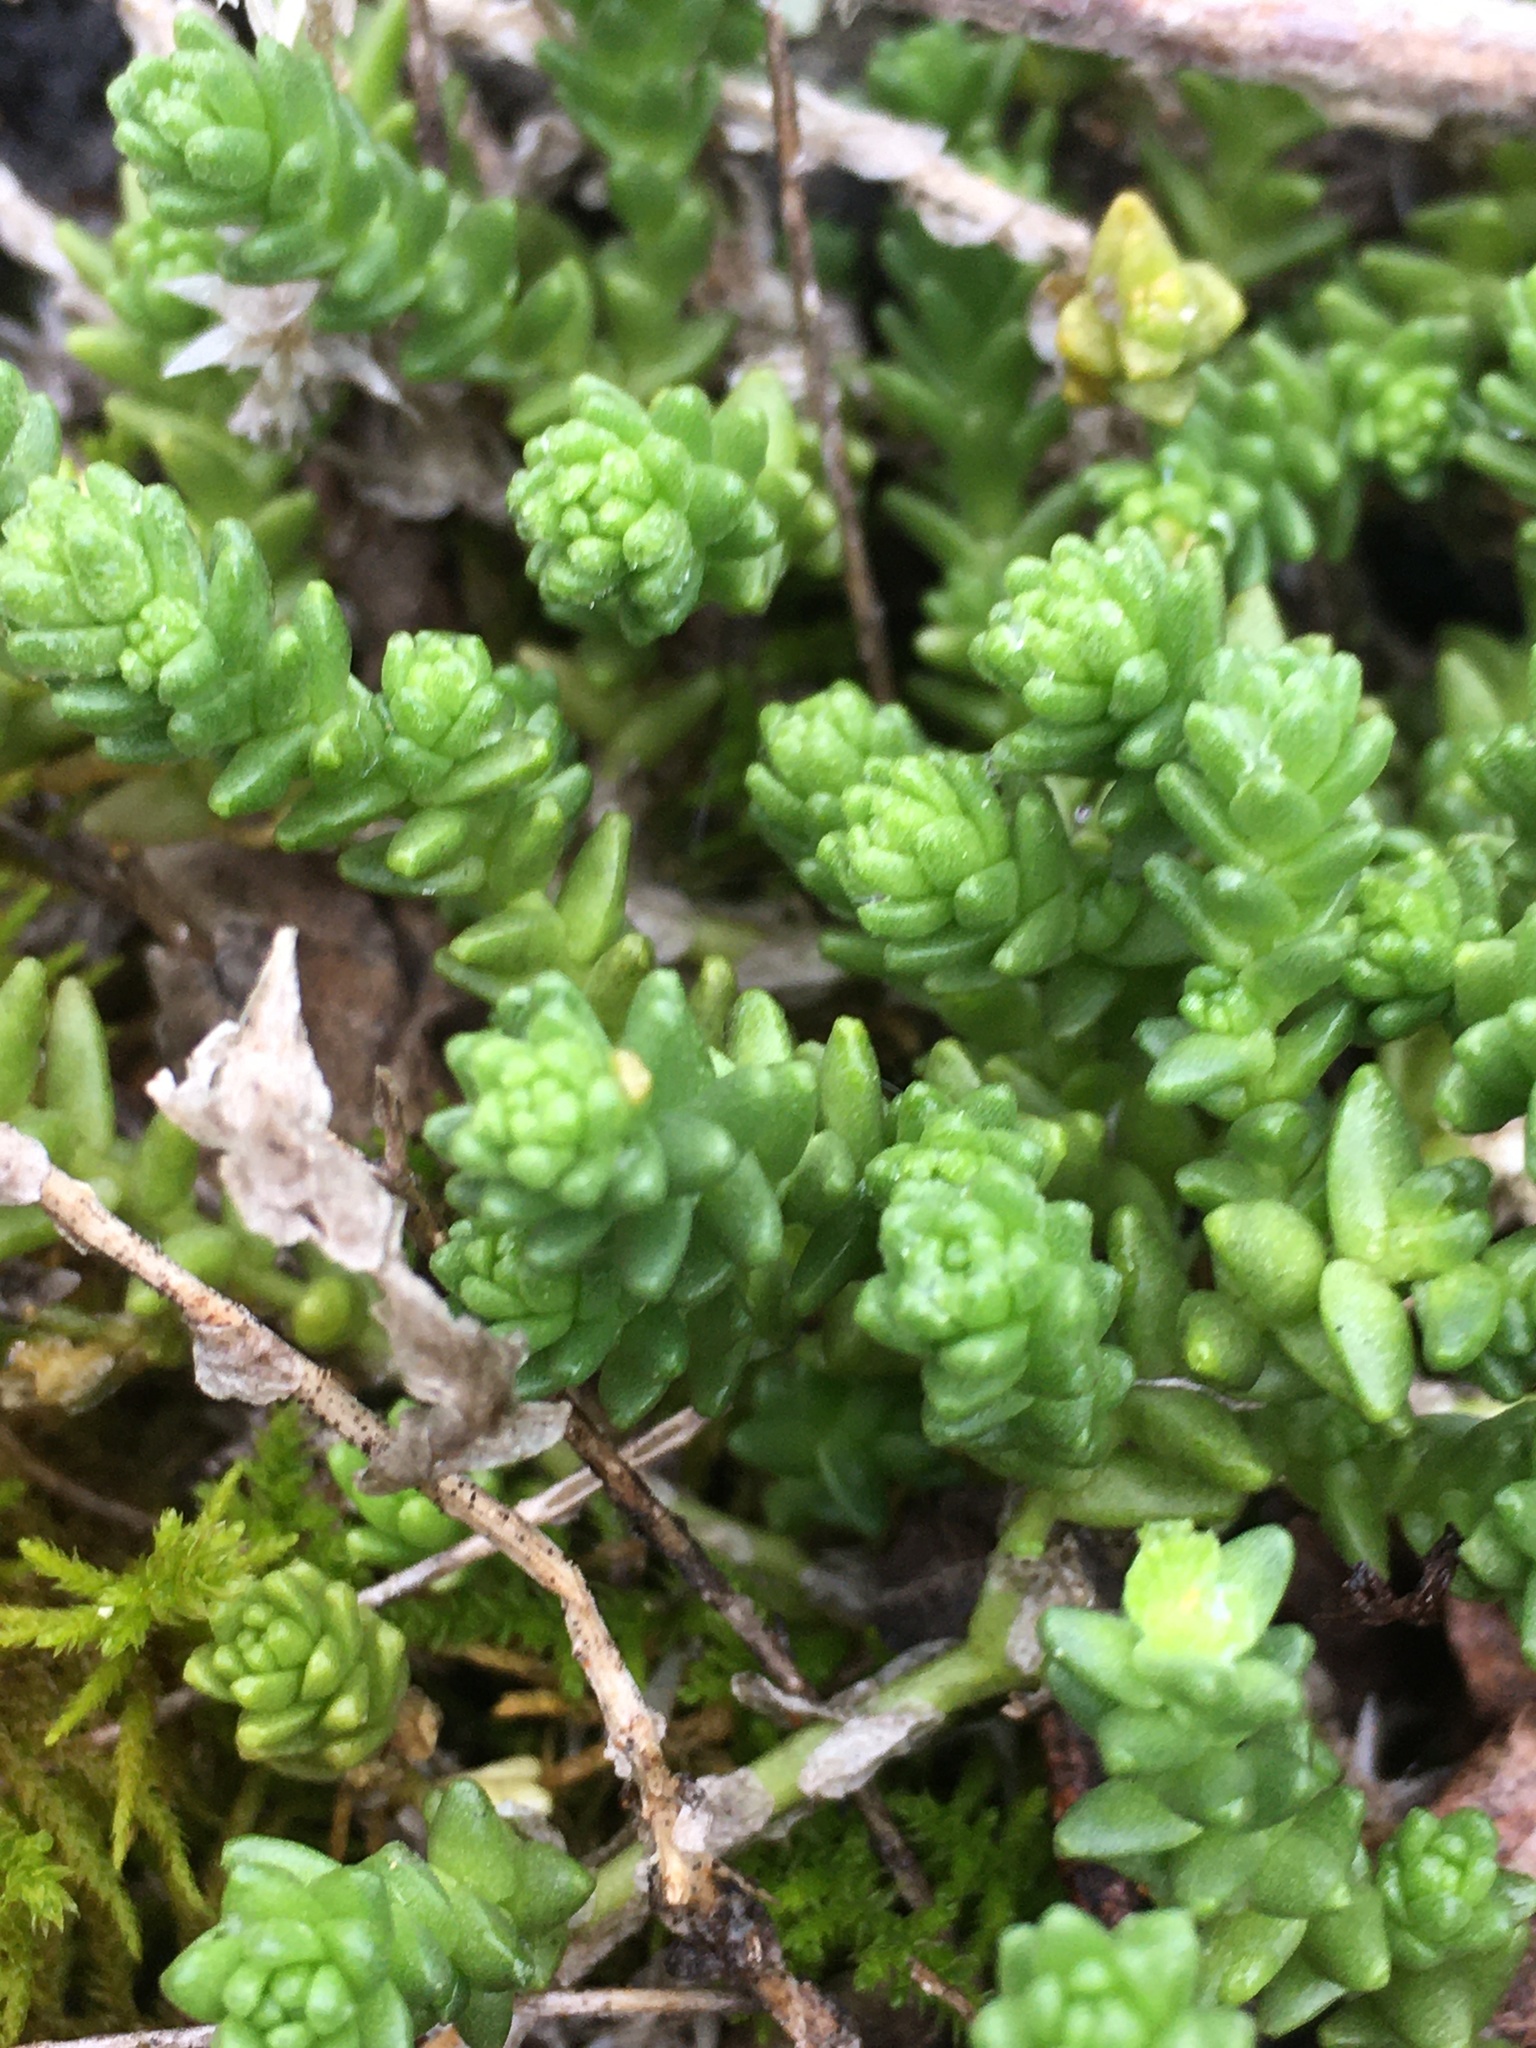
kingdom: Plantae
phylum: Tracheophyta
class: Magnoliopsida
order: Saxifragales
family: Crassulaceae
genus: Sedum
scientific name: Sedum acre
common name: Biting stonecrop
